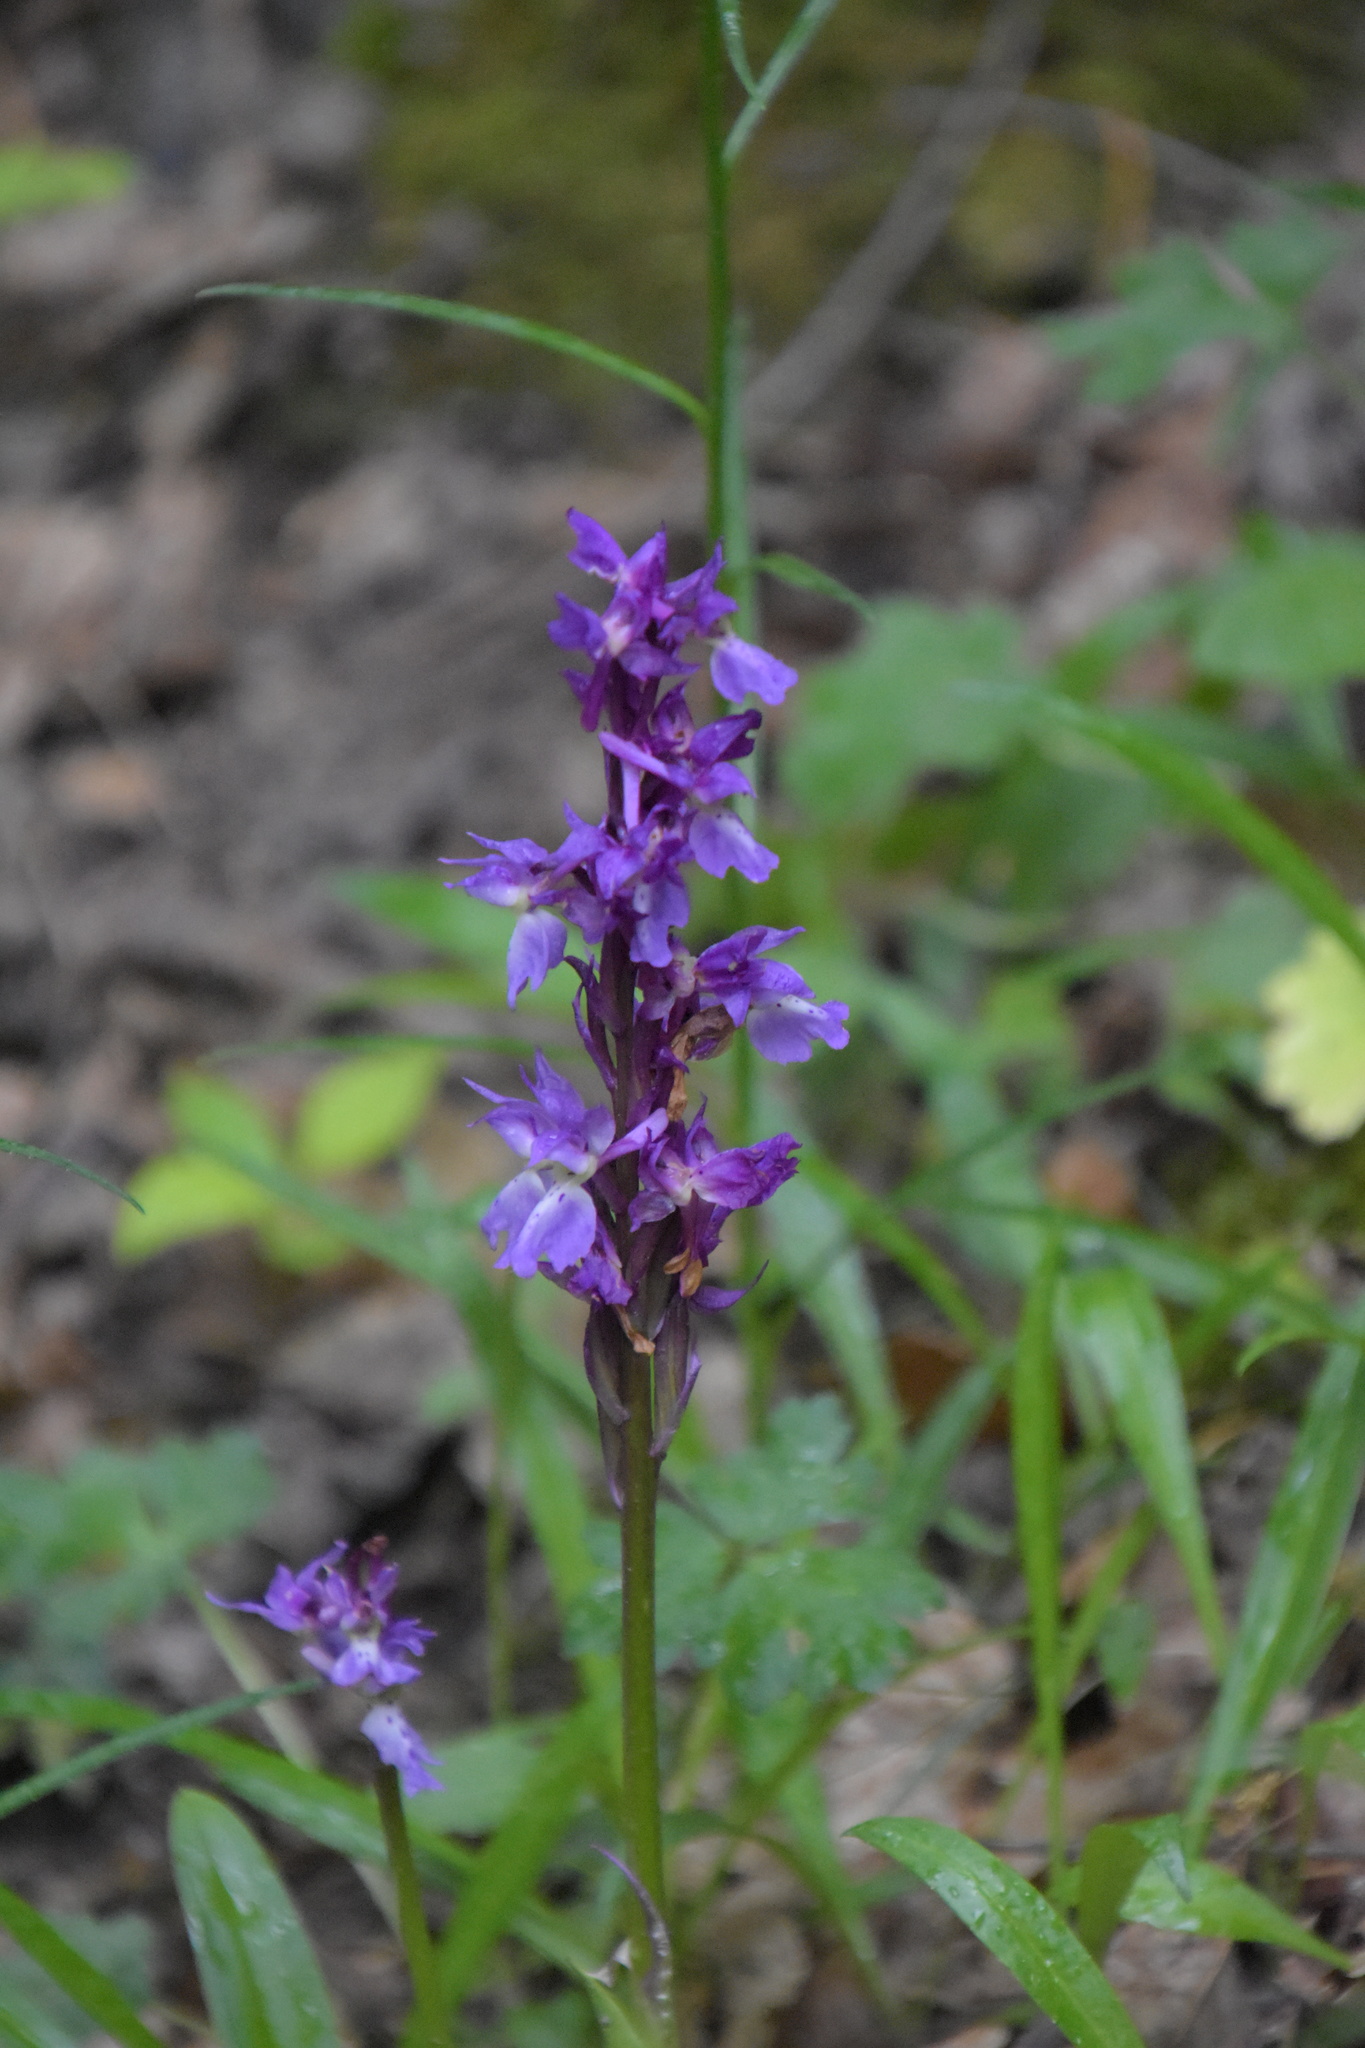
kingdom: Plantae
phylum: Tracheophyta
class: Liliopsida
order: Asparagales
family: Orchidaceae
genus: Orchis
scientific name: Orchis mascula
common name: Early-purple orchid
